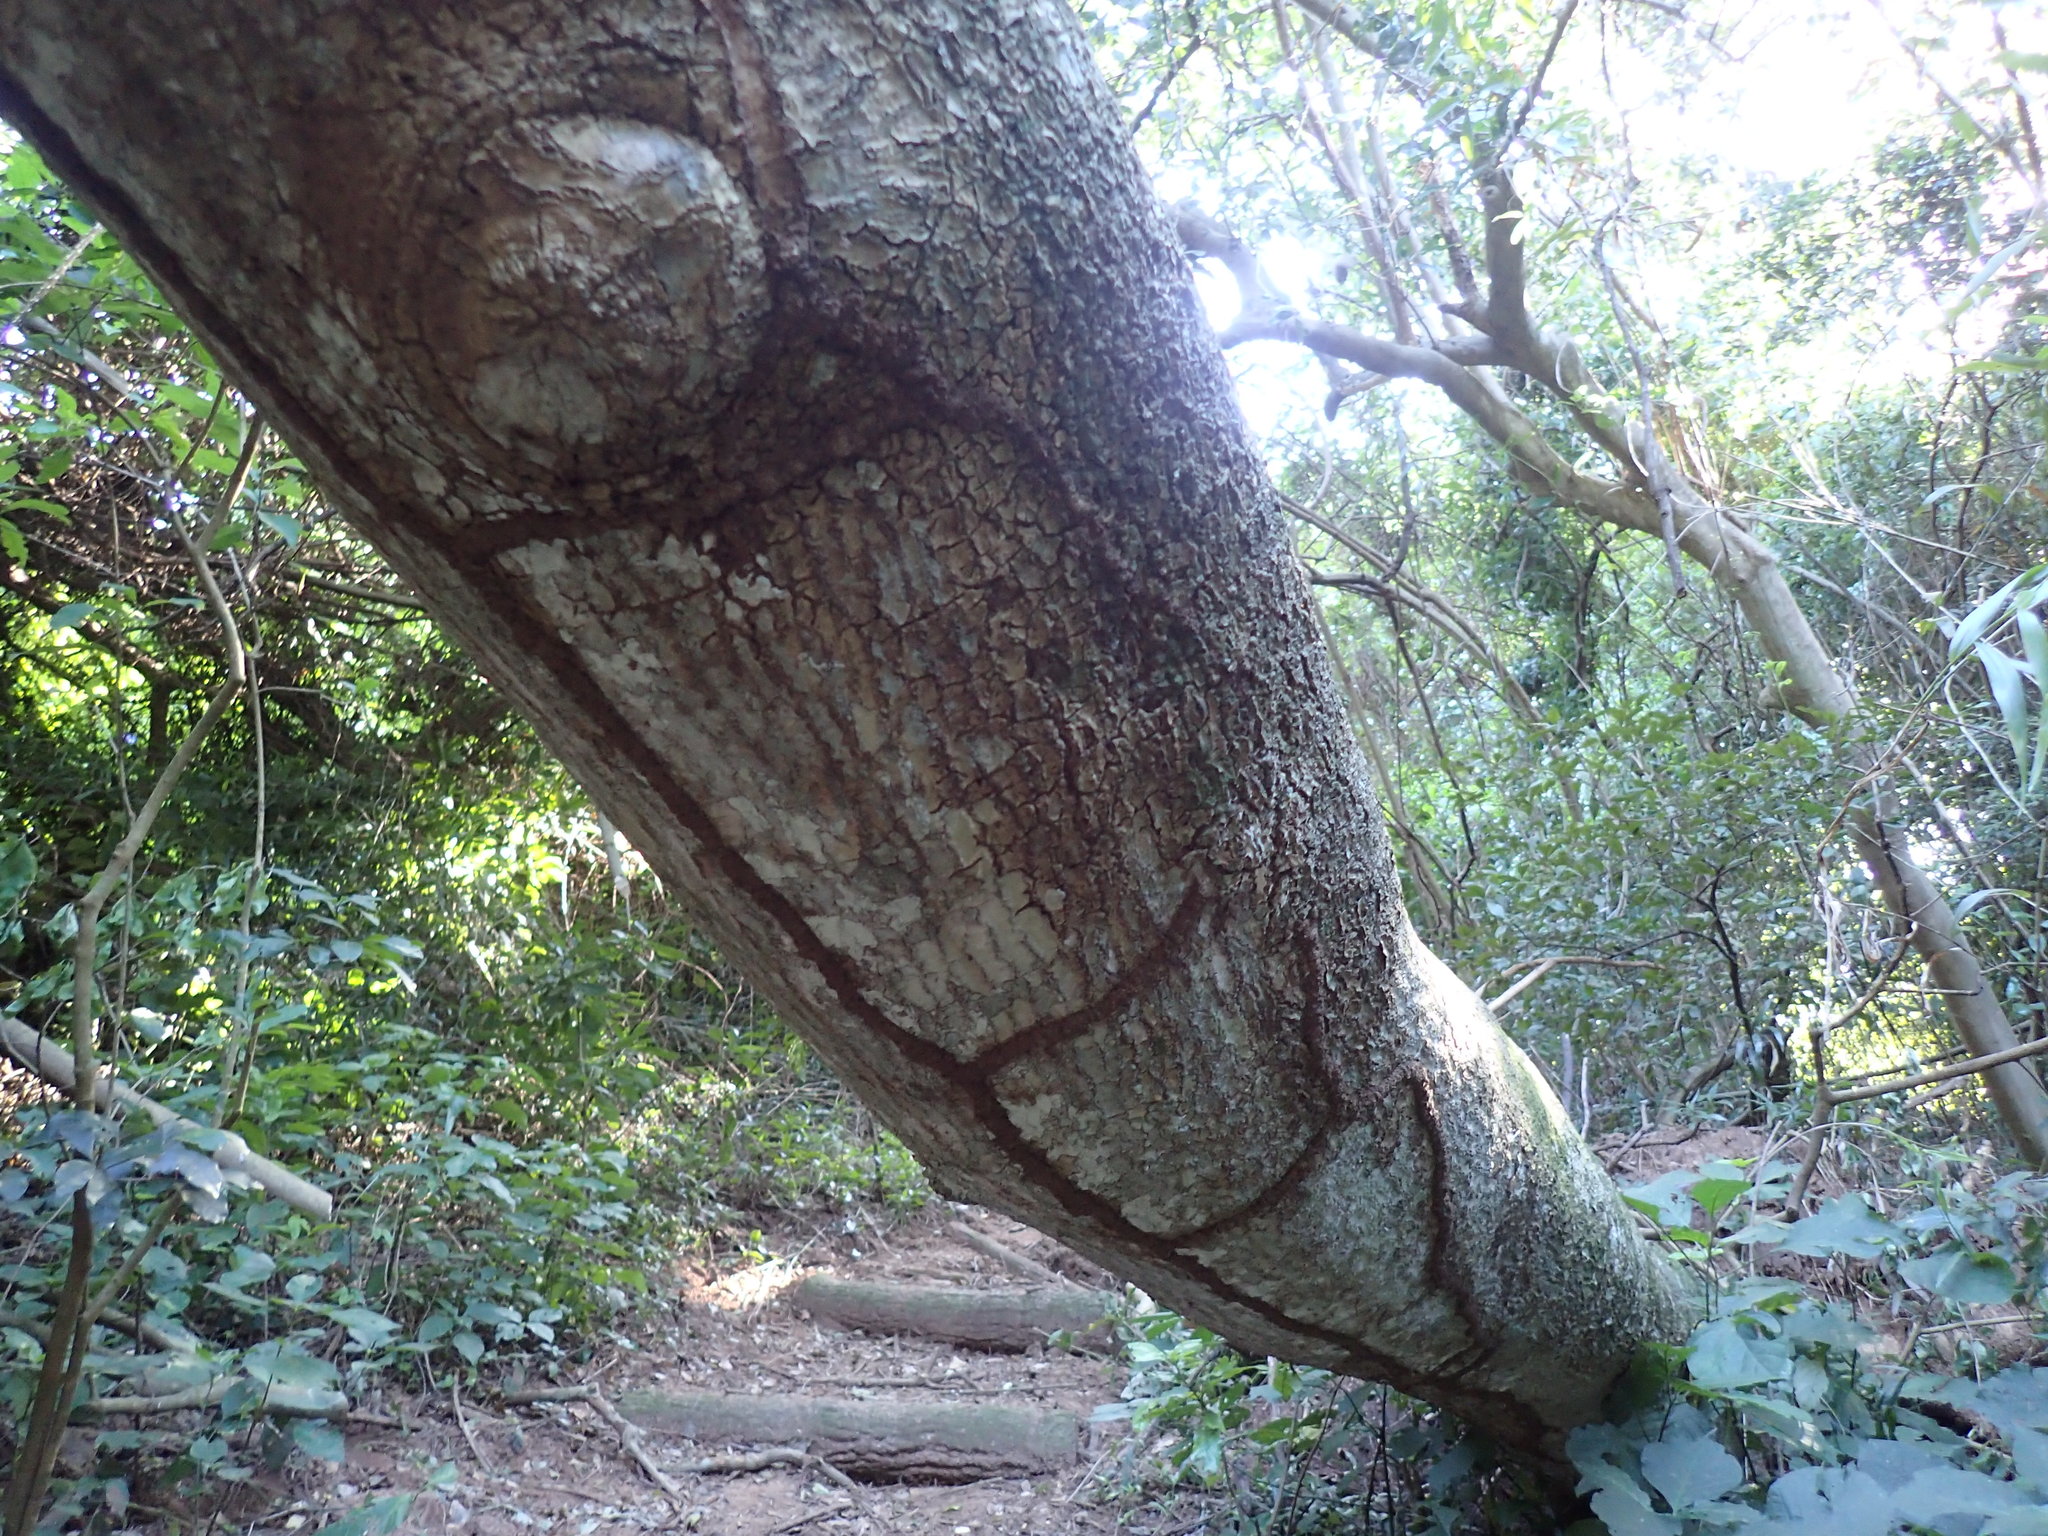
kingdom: Animalia
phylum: Arthropoda
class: Insecta
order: Blattodea
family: Rhinotermitidae
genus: Schedorhinotermes
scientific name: Schedorhinotermes lamanianus
